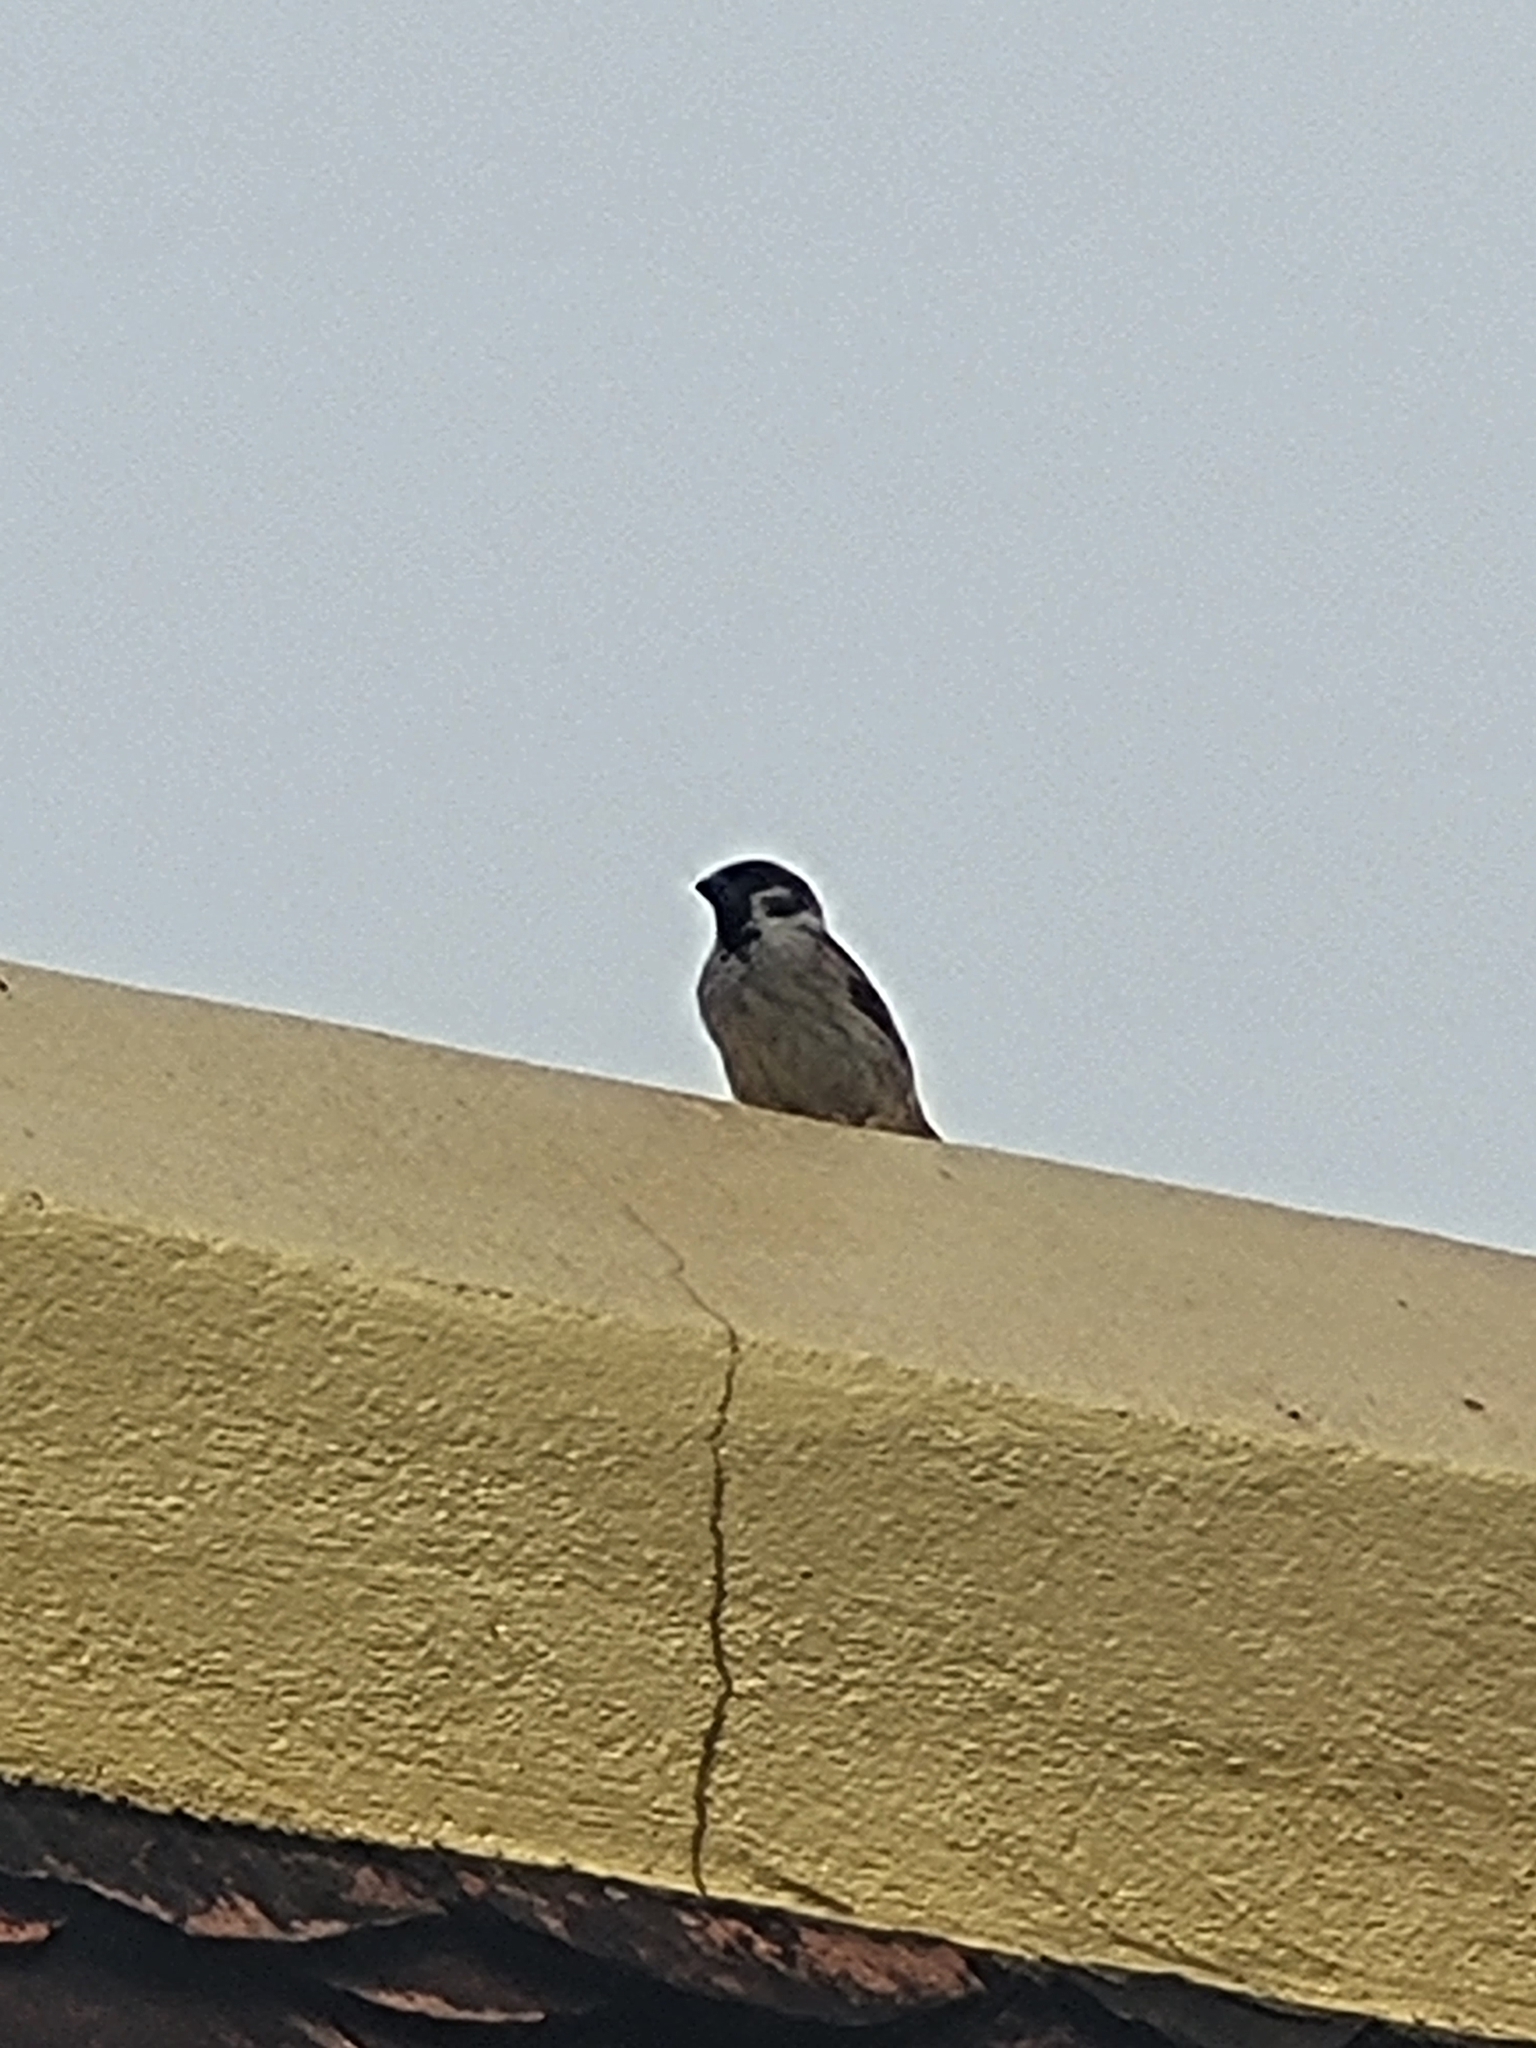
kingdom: Animalia
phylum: Chordata
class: Aves
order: Passeriformes
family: Passeridae
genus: Passer
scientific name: Passer montanus
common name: Eurasian tree sparrow
